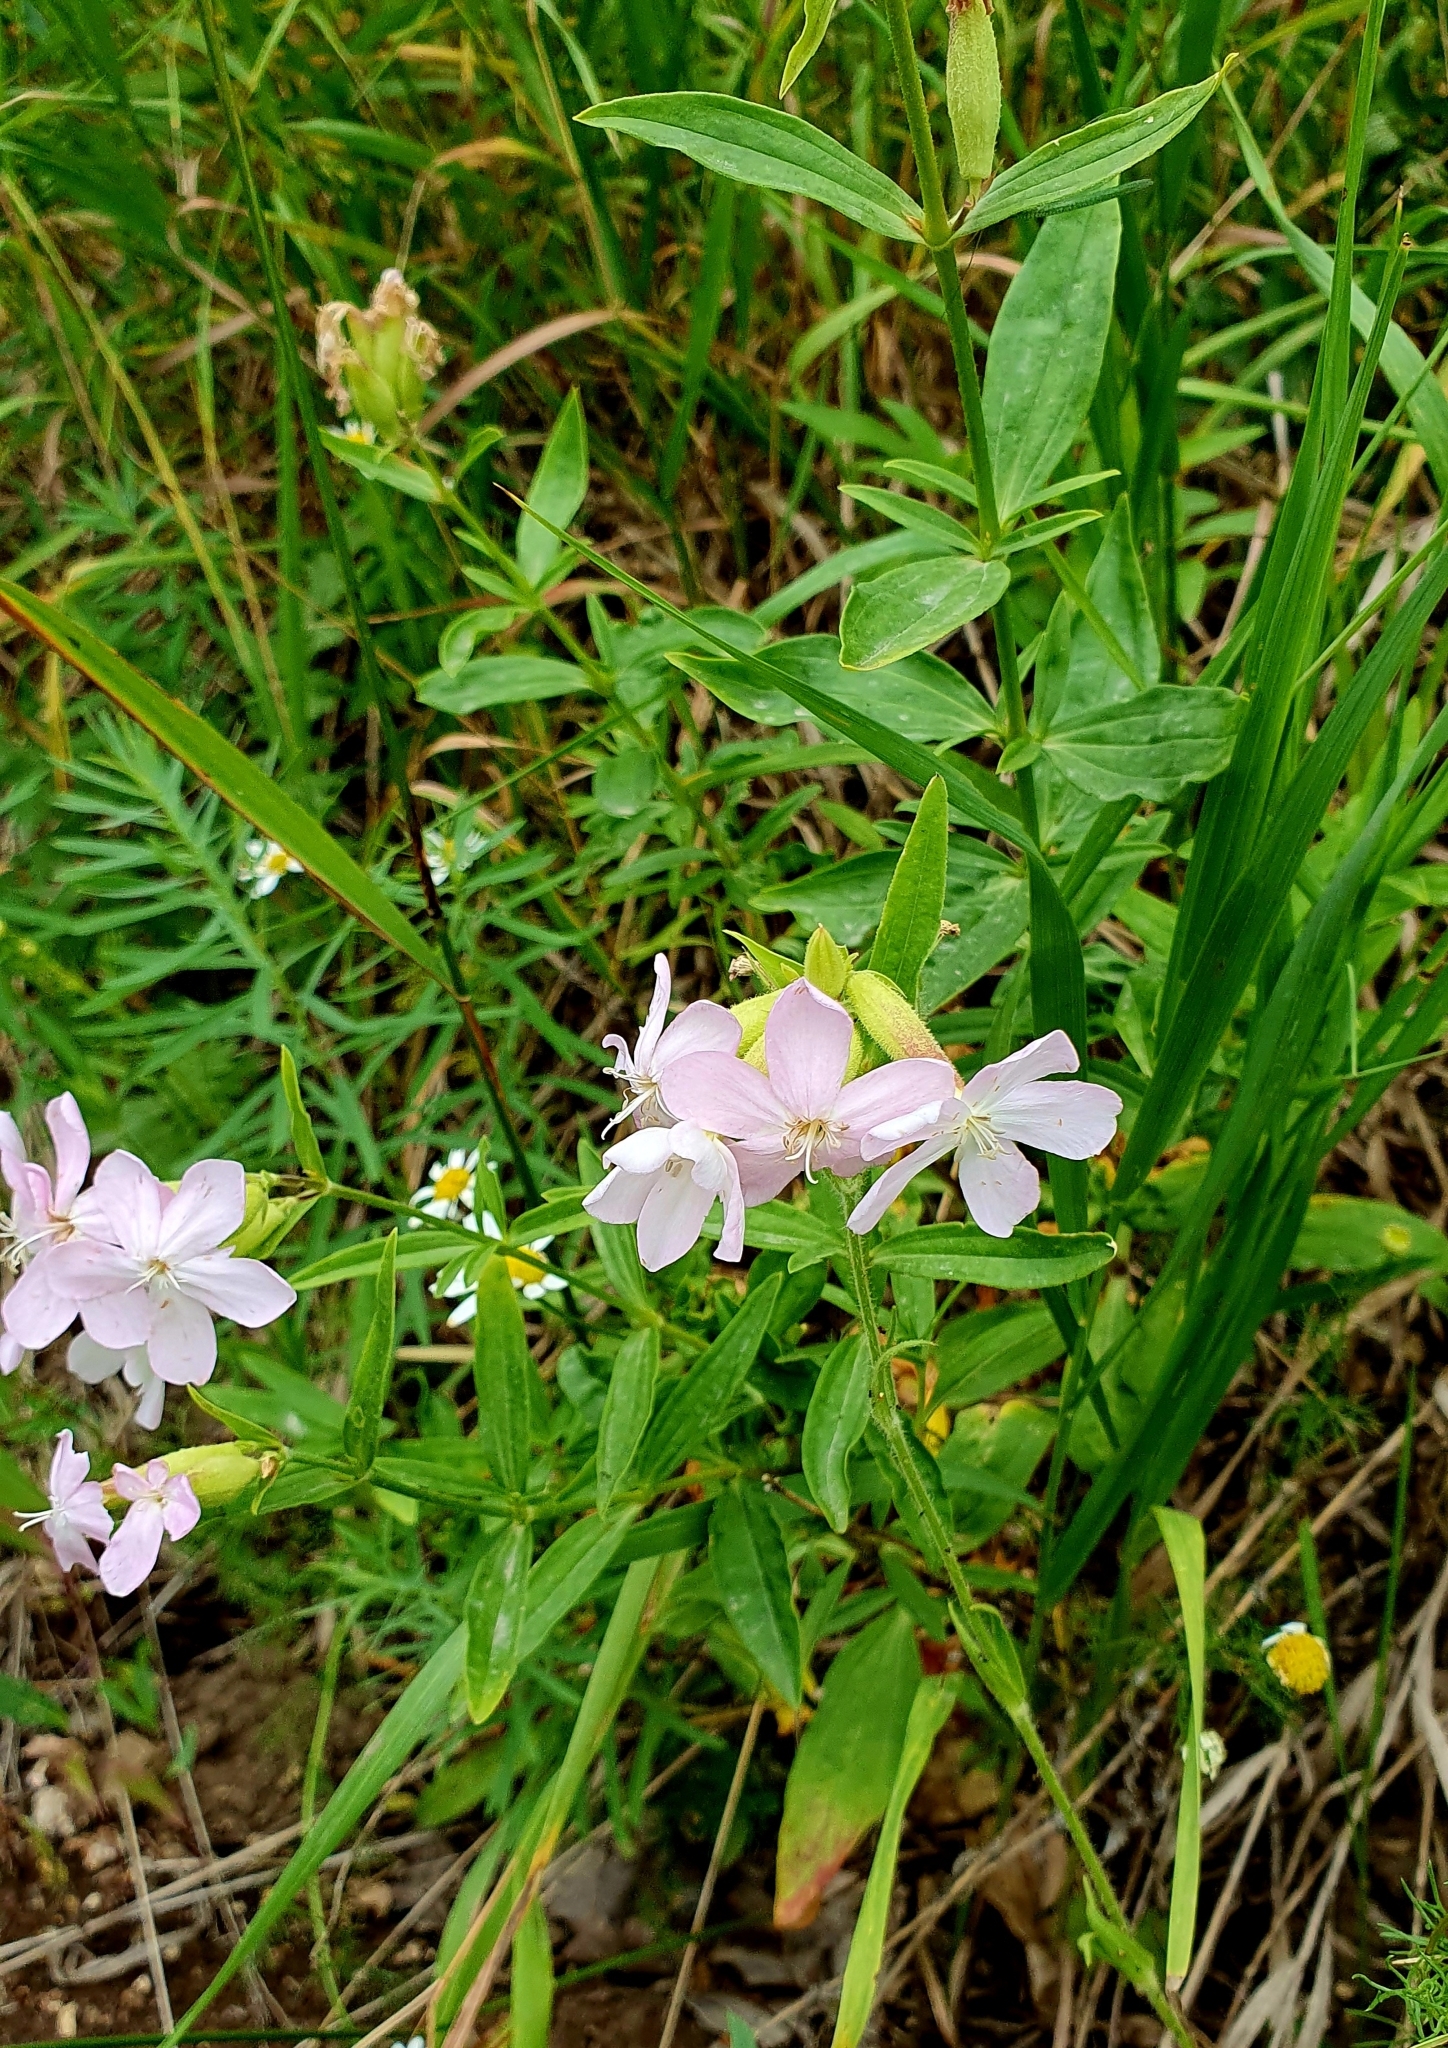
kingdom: Plantae
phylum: Tracheophyta
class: Magnoliopsida
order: Caryophyllales
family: Caryophyllaceae
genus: Saponaria
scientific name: Saponaria officinalis
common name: Soapwort
